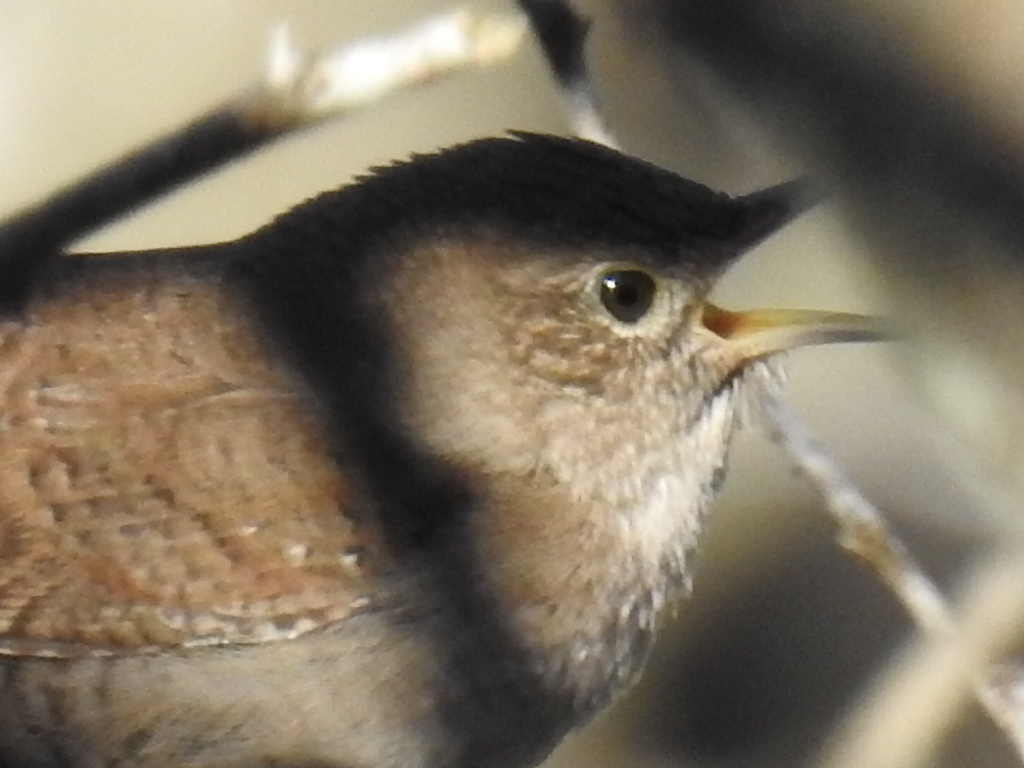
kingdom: Animalia
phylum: Chordata
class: Aves
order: Passeriformes
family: Troglodytidae
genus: Troglodytes
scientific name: Troglodytes aedon
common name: House wren
